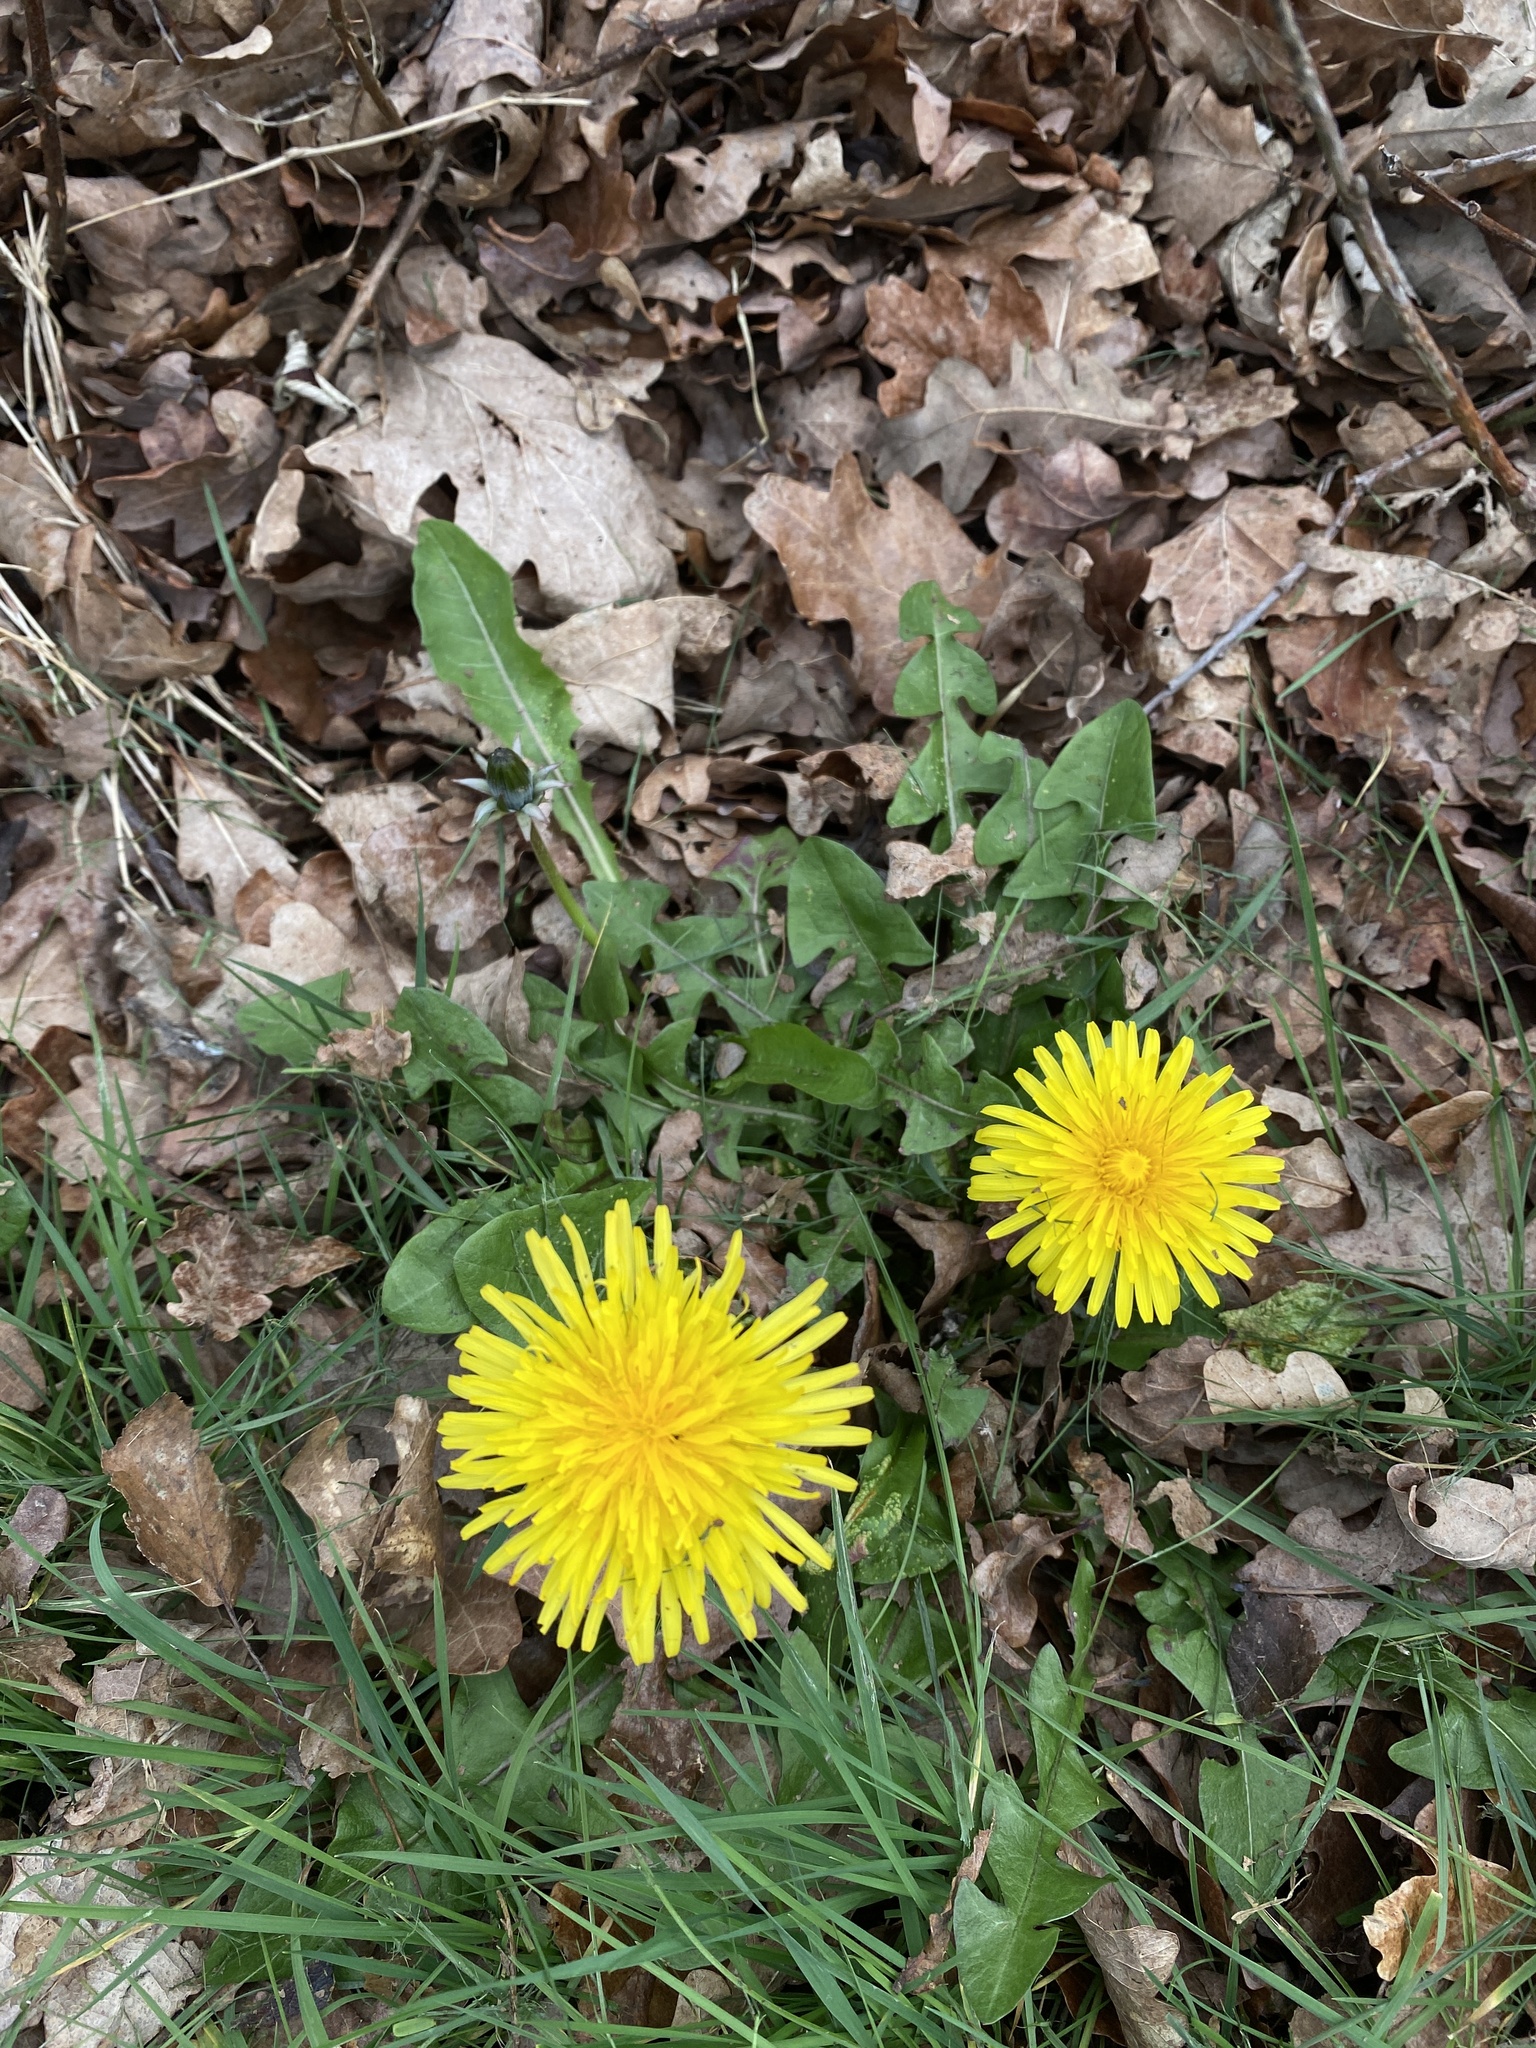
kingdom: Plantae
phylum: Tracheophyta
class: Magnoliopsida
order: Asterales
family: Asteraceae
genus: Taraxacum
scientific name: Taraxacum officinale
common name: Common dandelion
